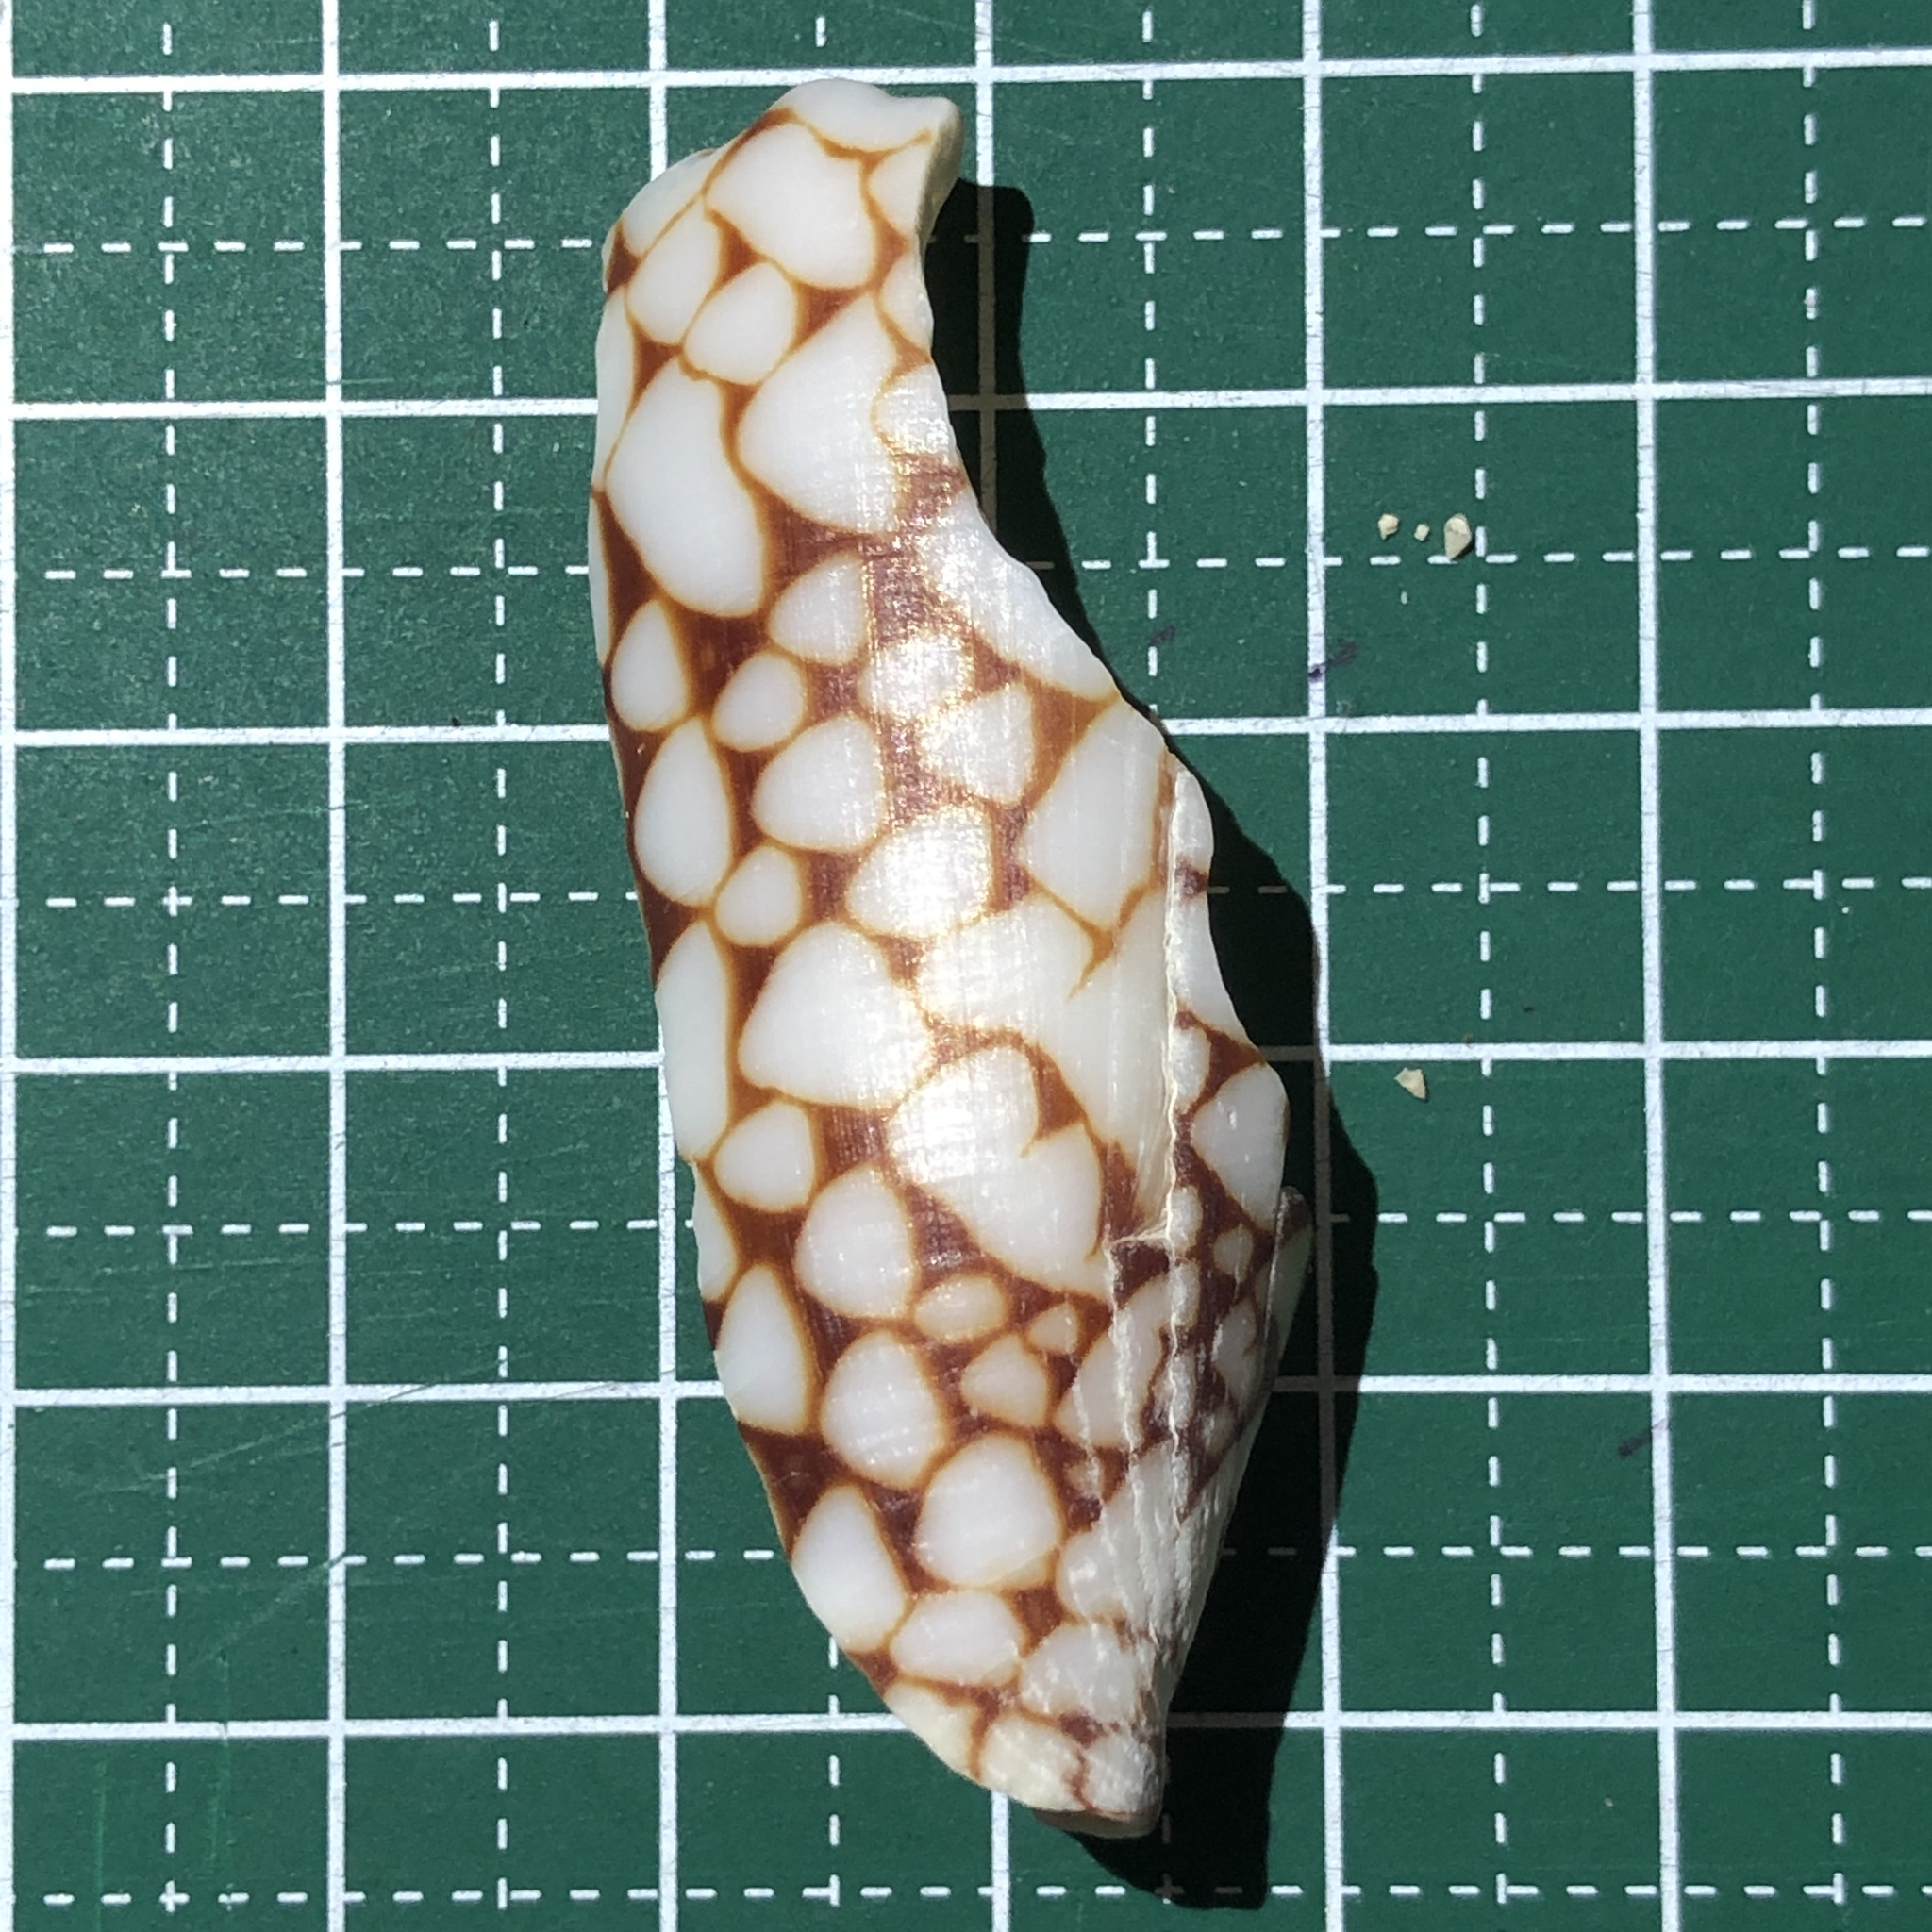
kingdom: Animalia
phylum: Mollusca
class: Gastropoda
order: Neogastropoda
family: Conidae
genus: Conus
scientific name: Conus bandanus
